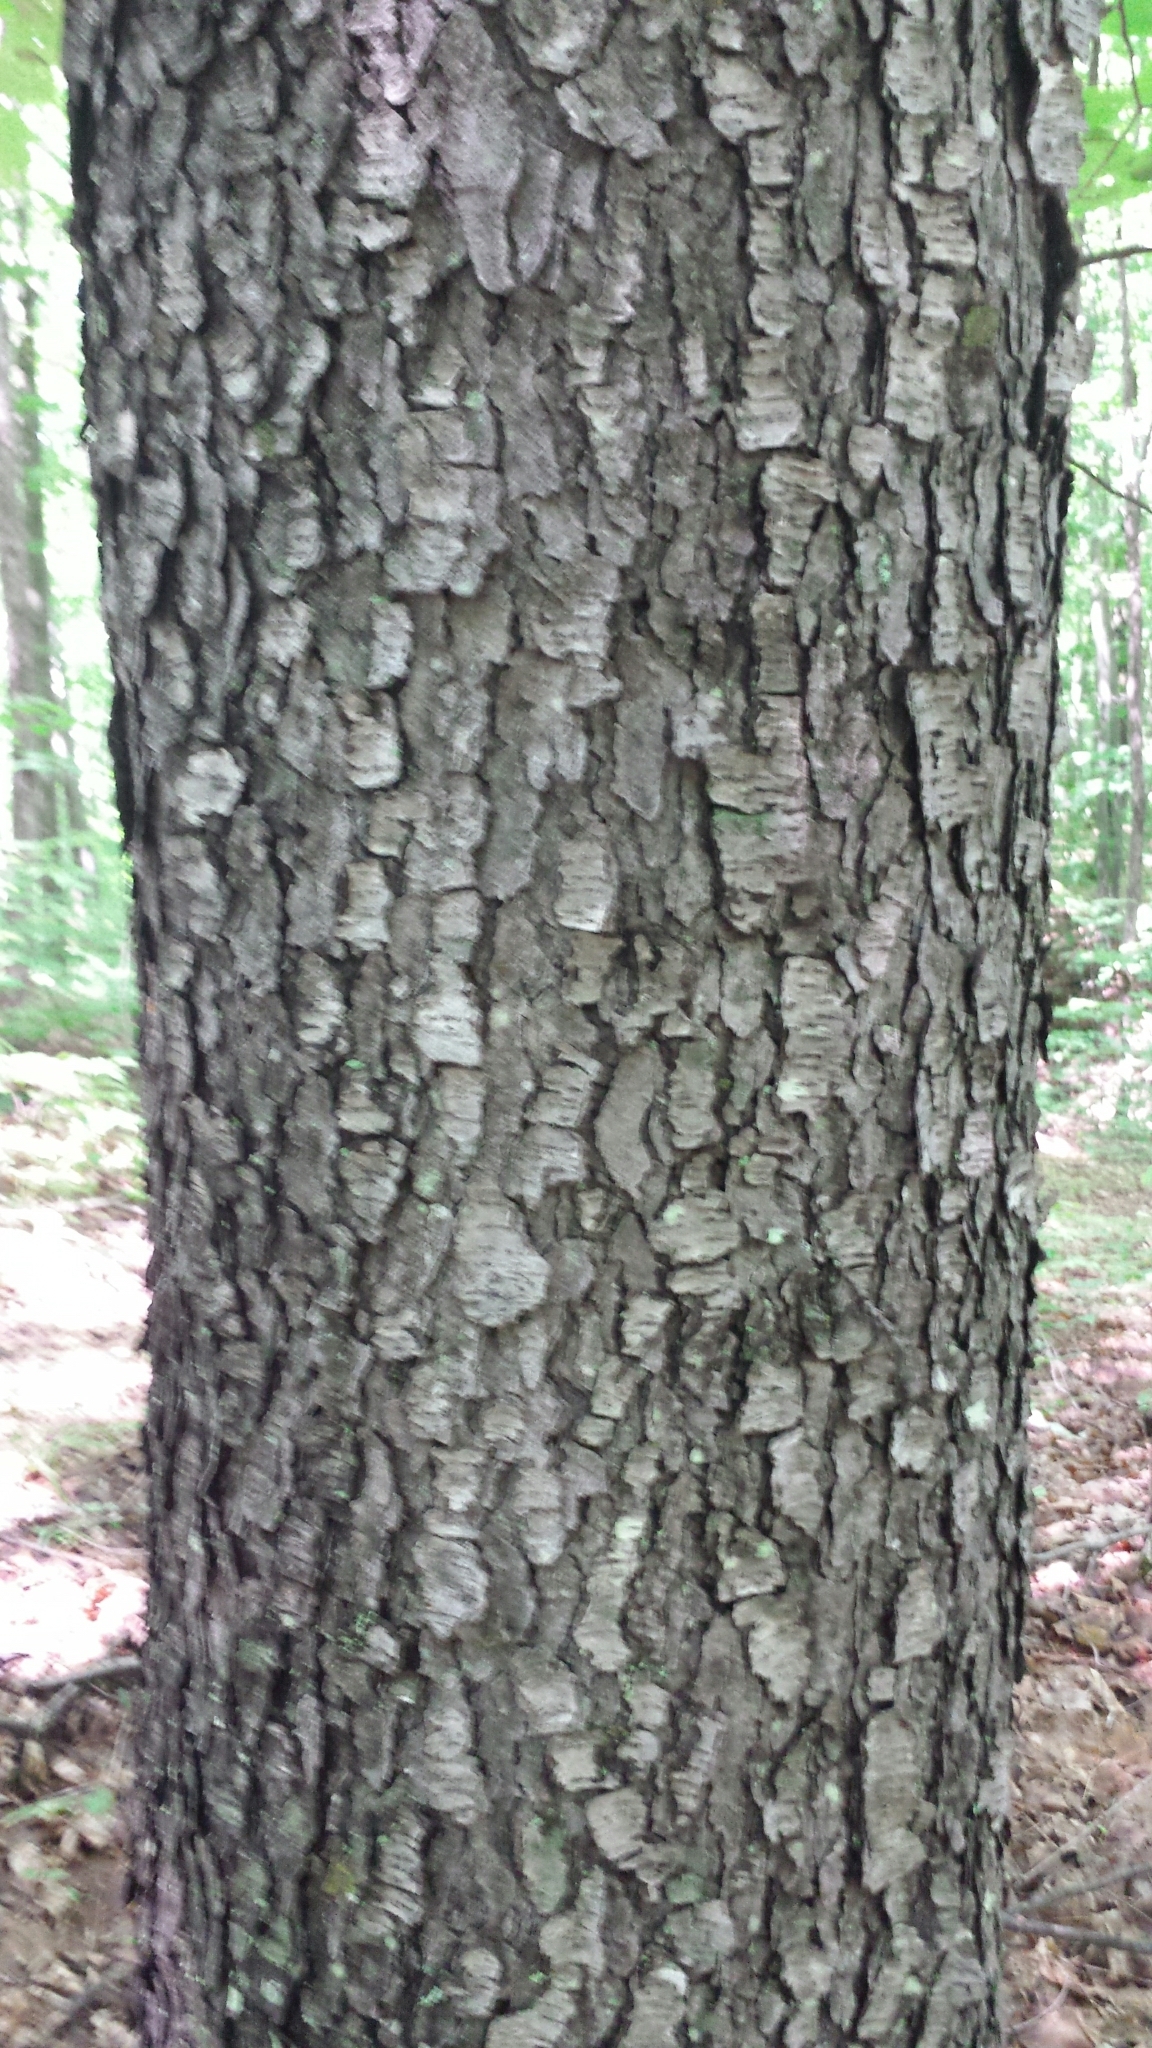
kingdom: Plantae
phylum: Tracheophyta
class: Magnoliopsida
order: Rosales
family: Rosaceae
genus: Prunus
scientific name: Prunus serotina
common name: Black cherry
